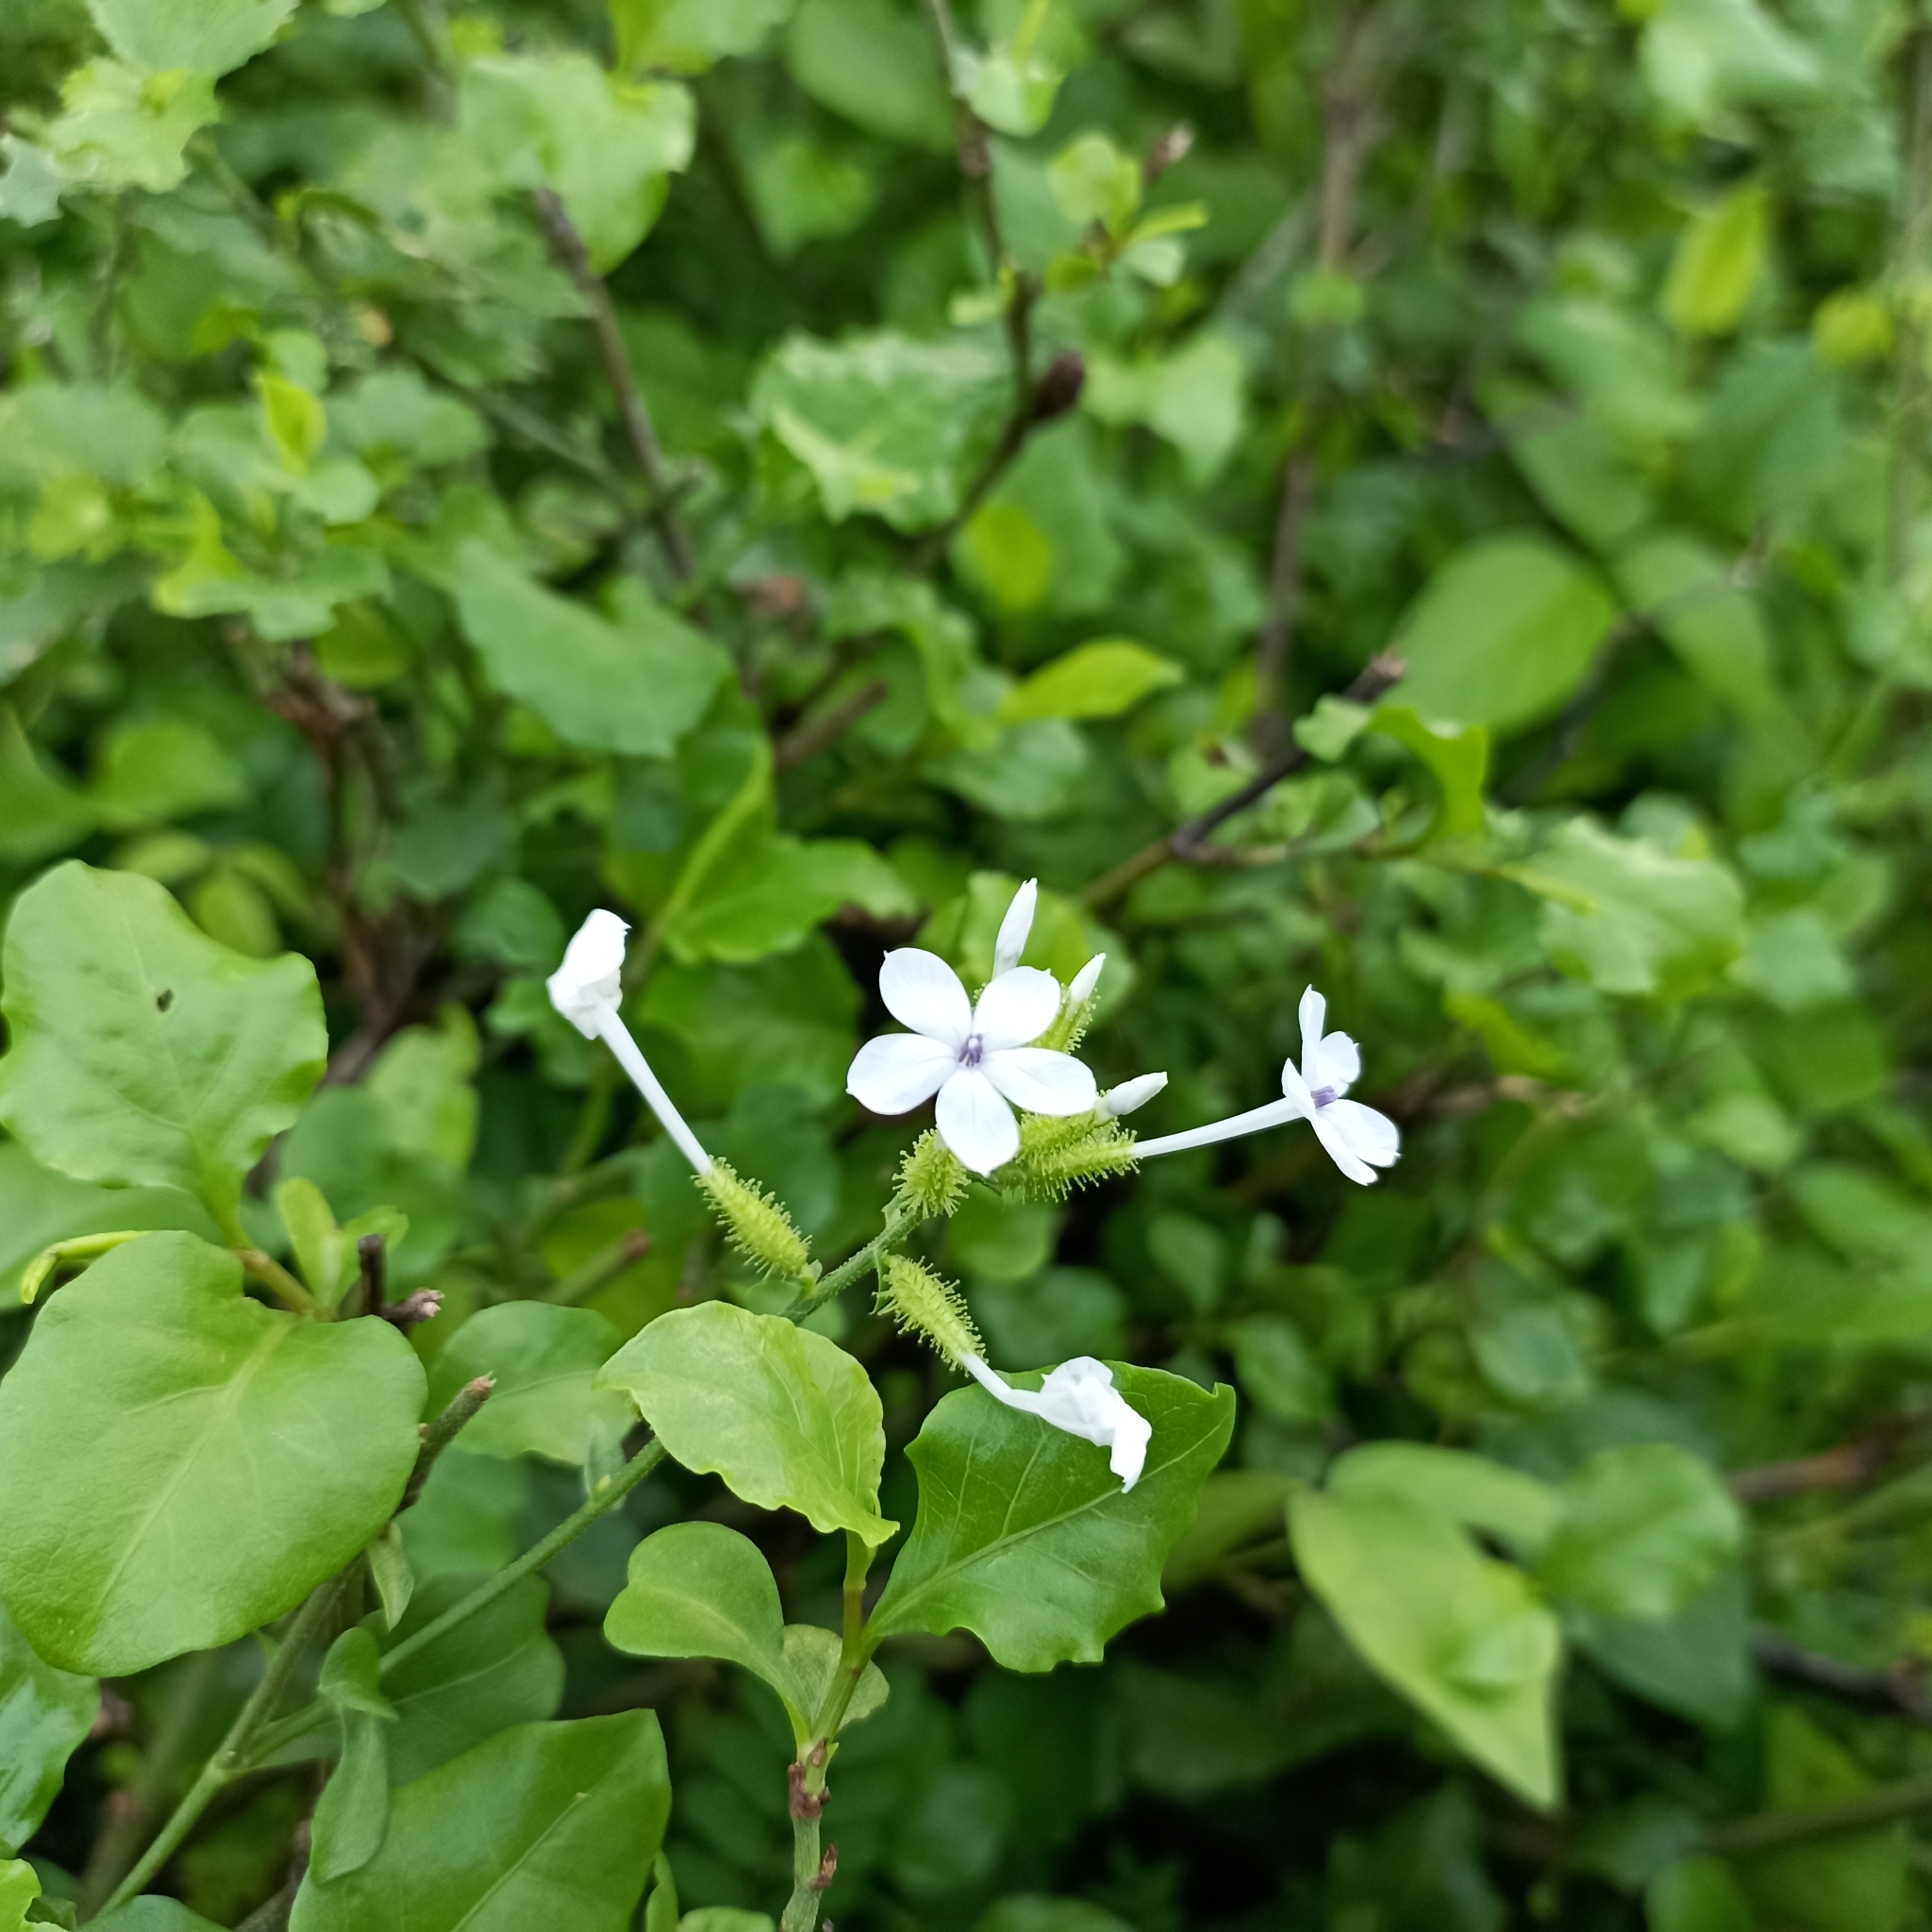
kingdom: Plantae
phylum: Tracheophyta
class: Magnoliopsida
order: Caryophyllales
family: Plumbaginaceae
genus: Plumbago
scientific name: Plumbago zeylanica
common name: Doctorbush
